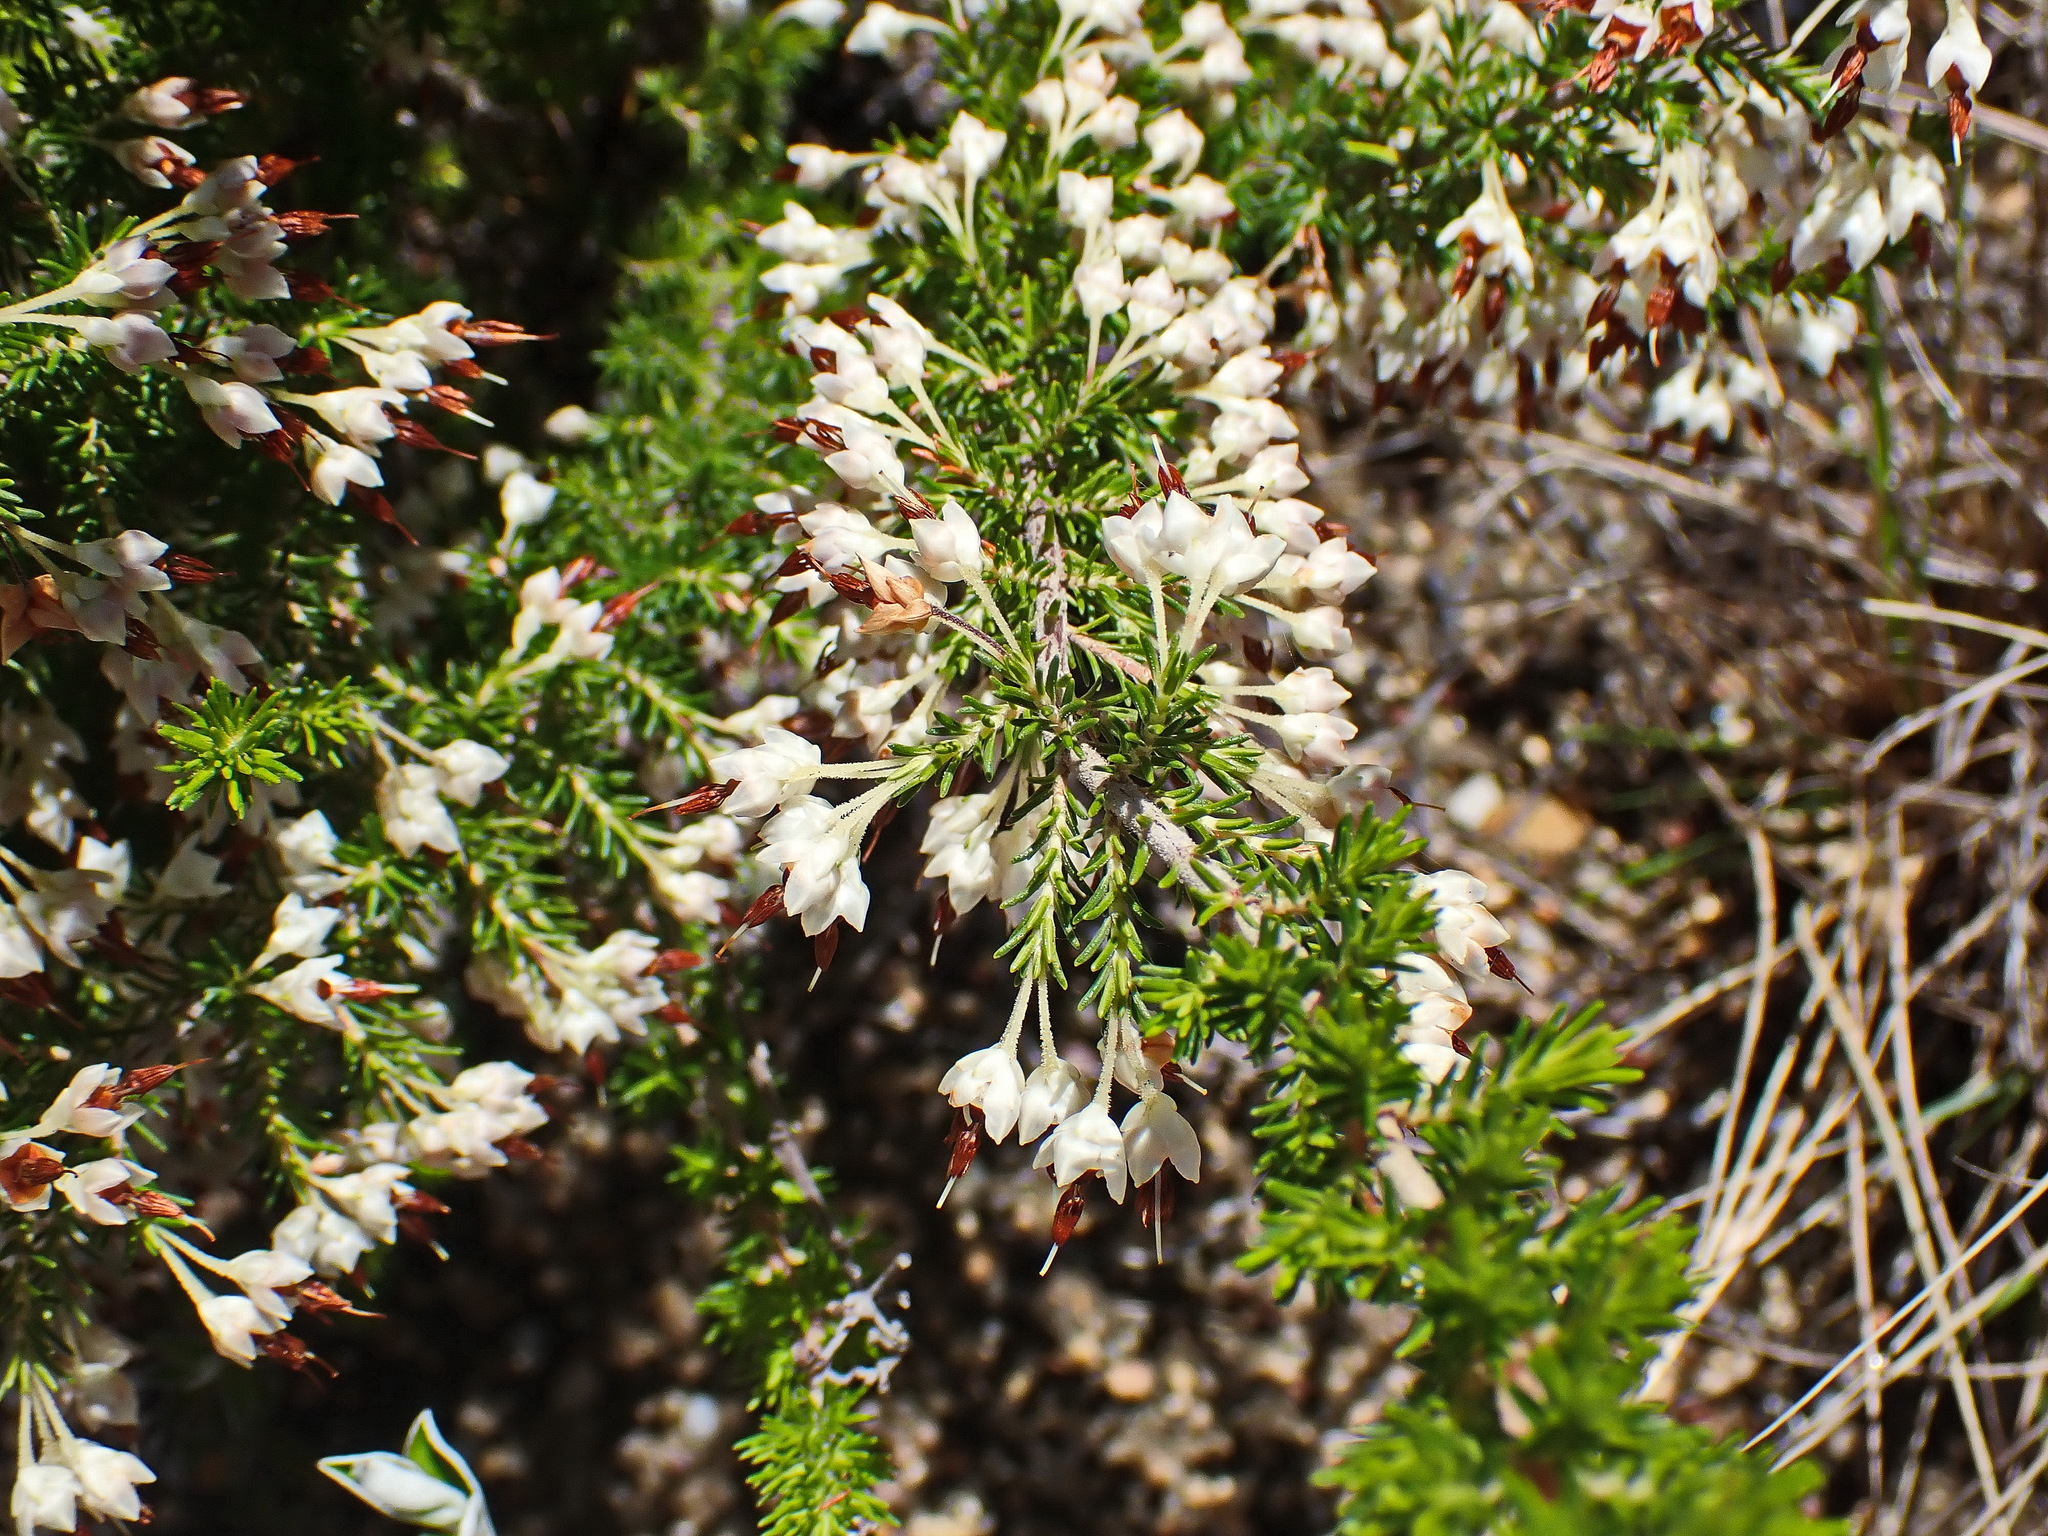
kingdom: Plantae
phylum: Tracheophyta
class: Magnoliopsida
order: Ericales
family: Ericaceae
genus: Erica
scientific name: Erica penicilliformis
